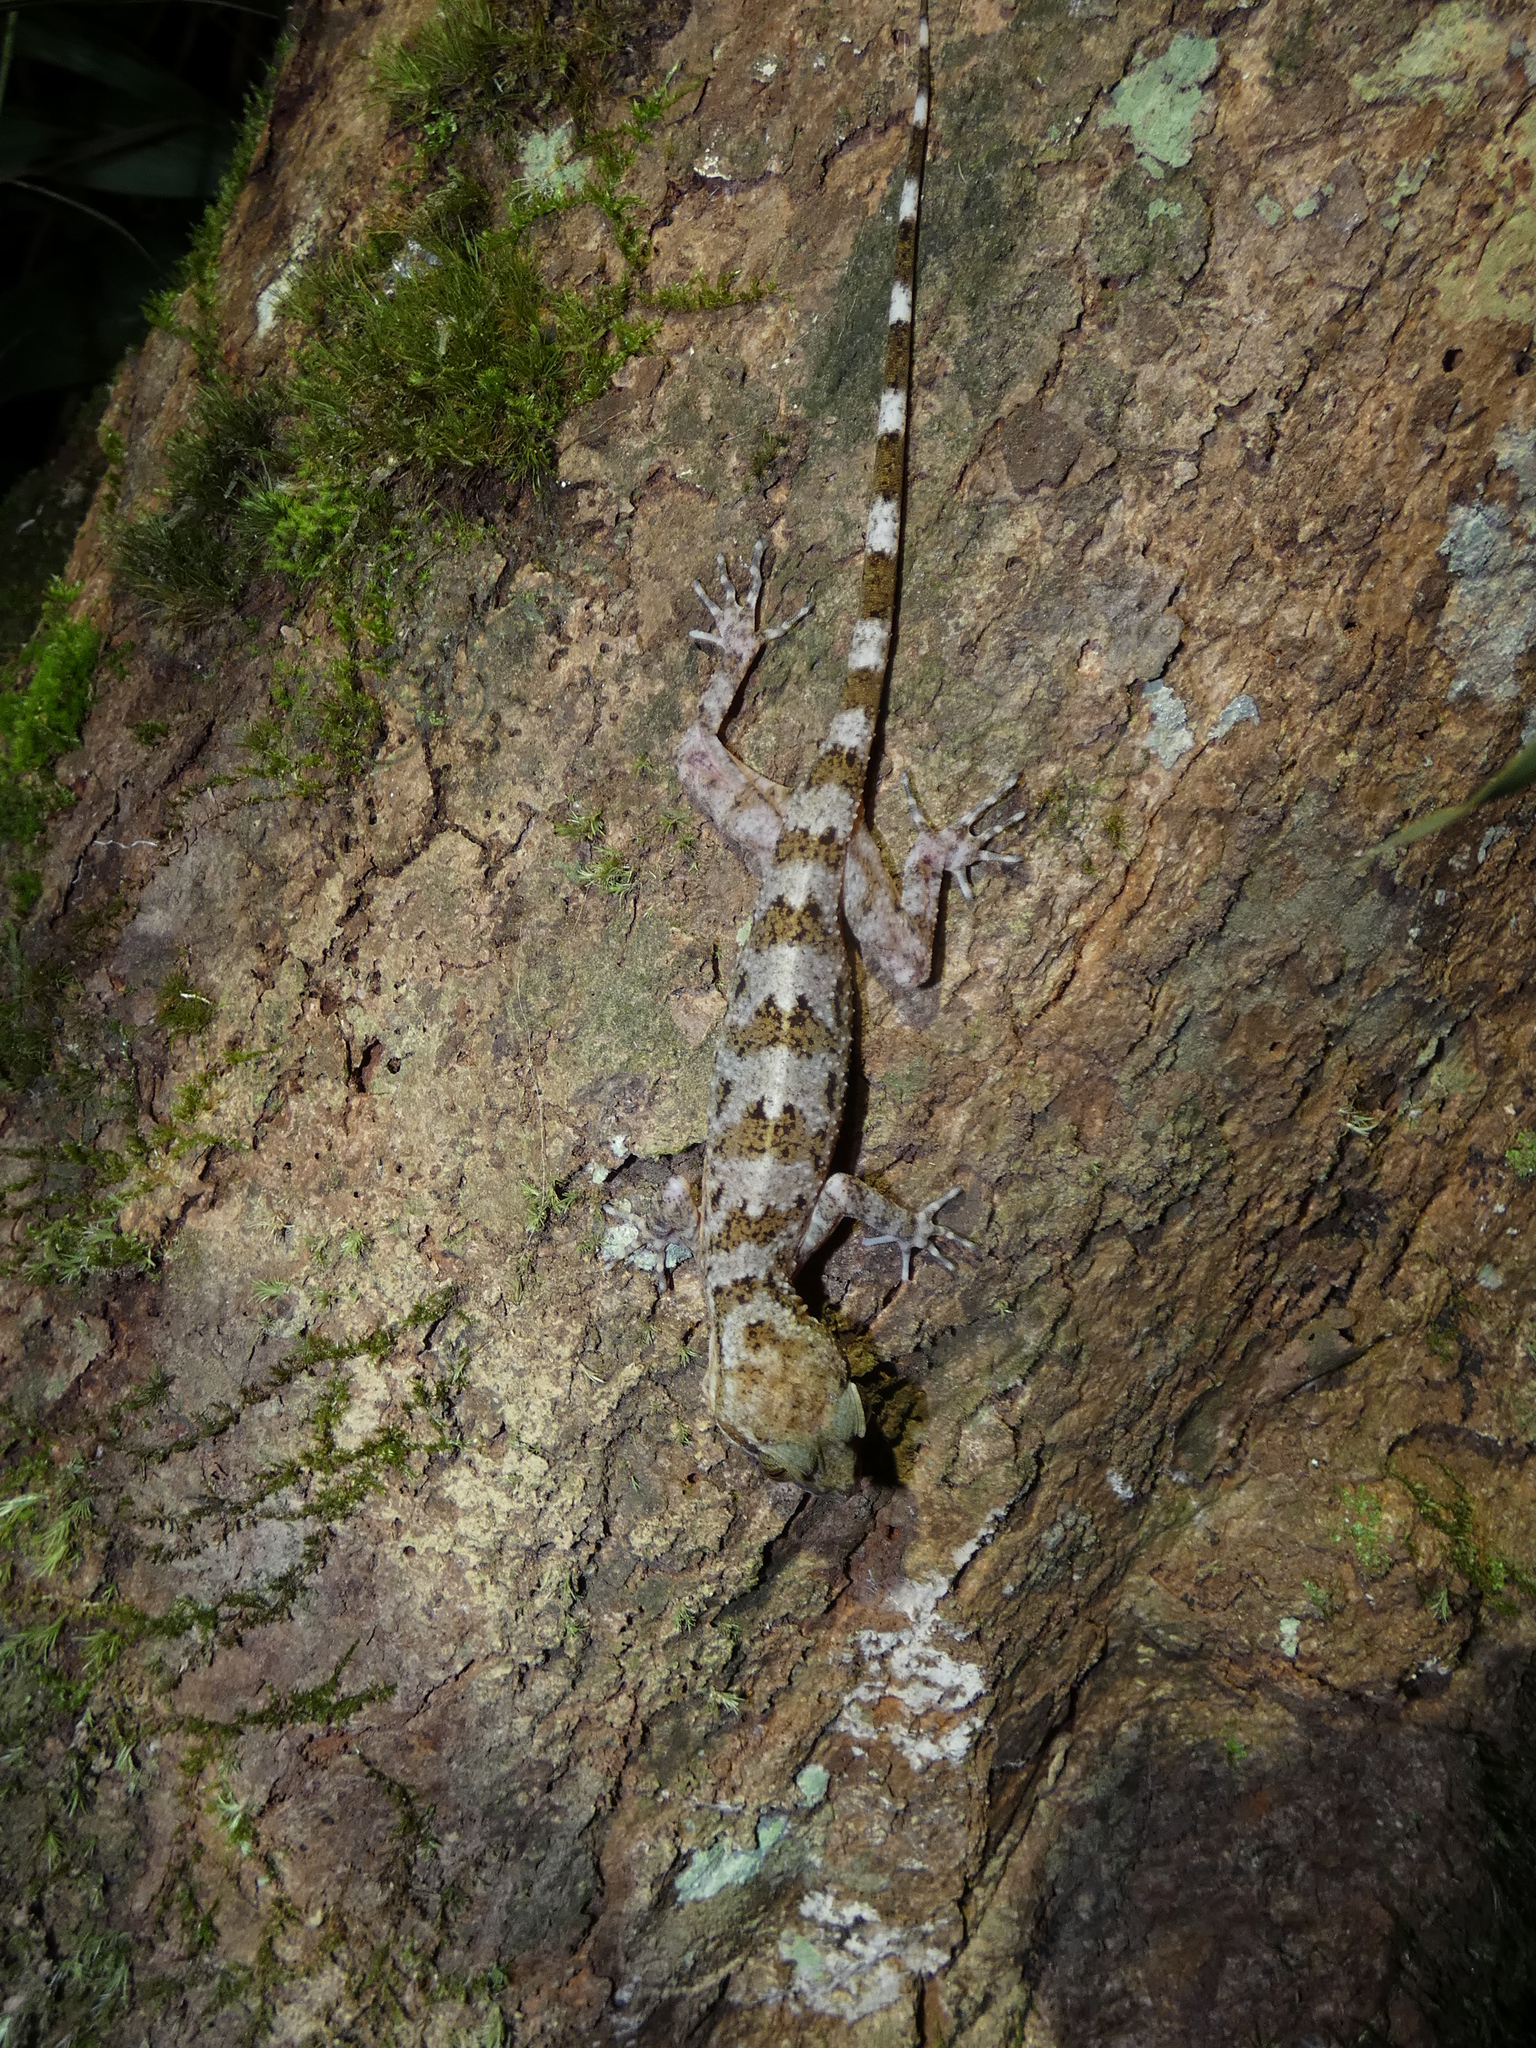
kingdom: Animalia
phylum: Chordata
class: Squamata
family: Gekkonidae
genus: Cyrtodactylus
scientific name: Cyrtodactylus yoshii
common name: Yoshi's bow-fingered gecko
